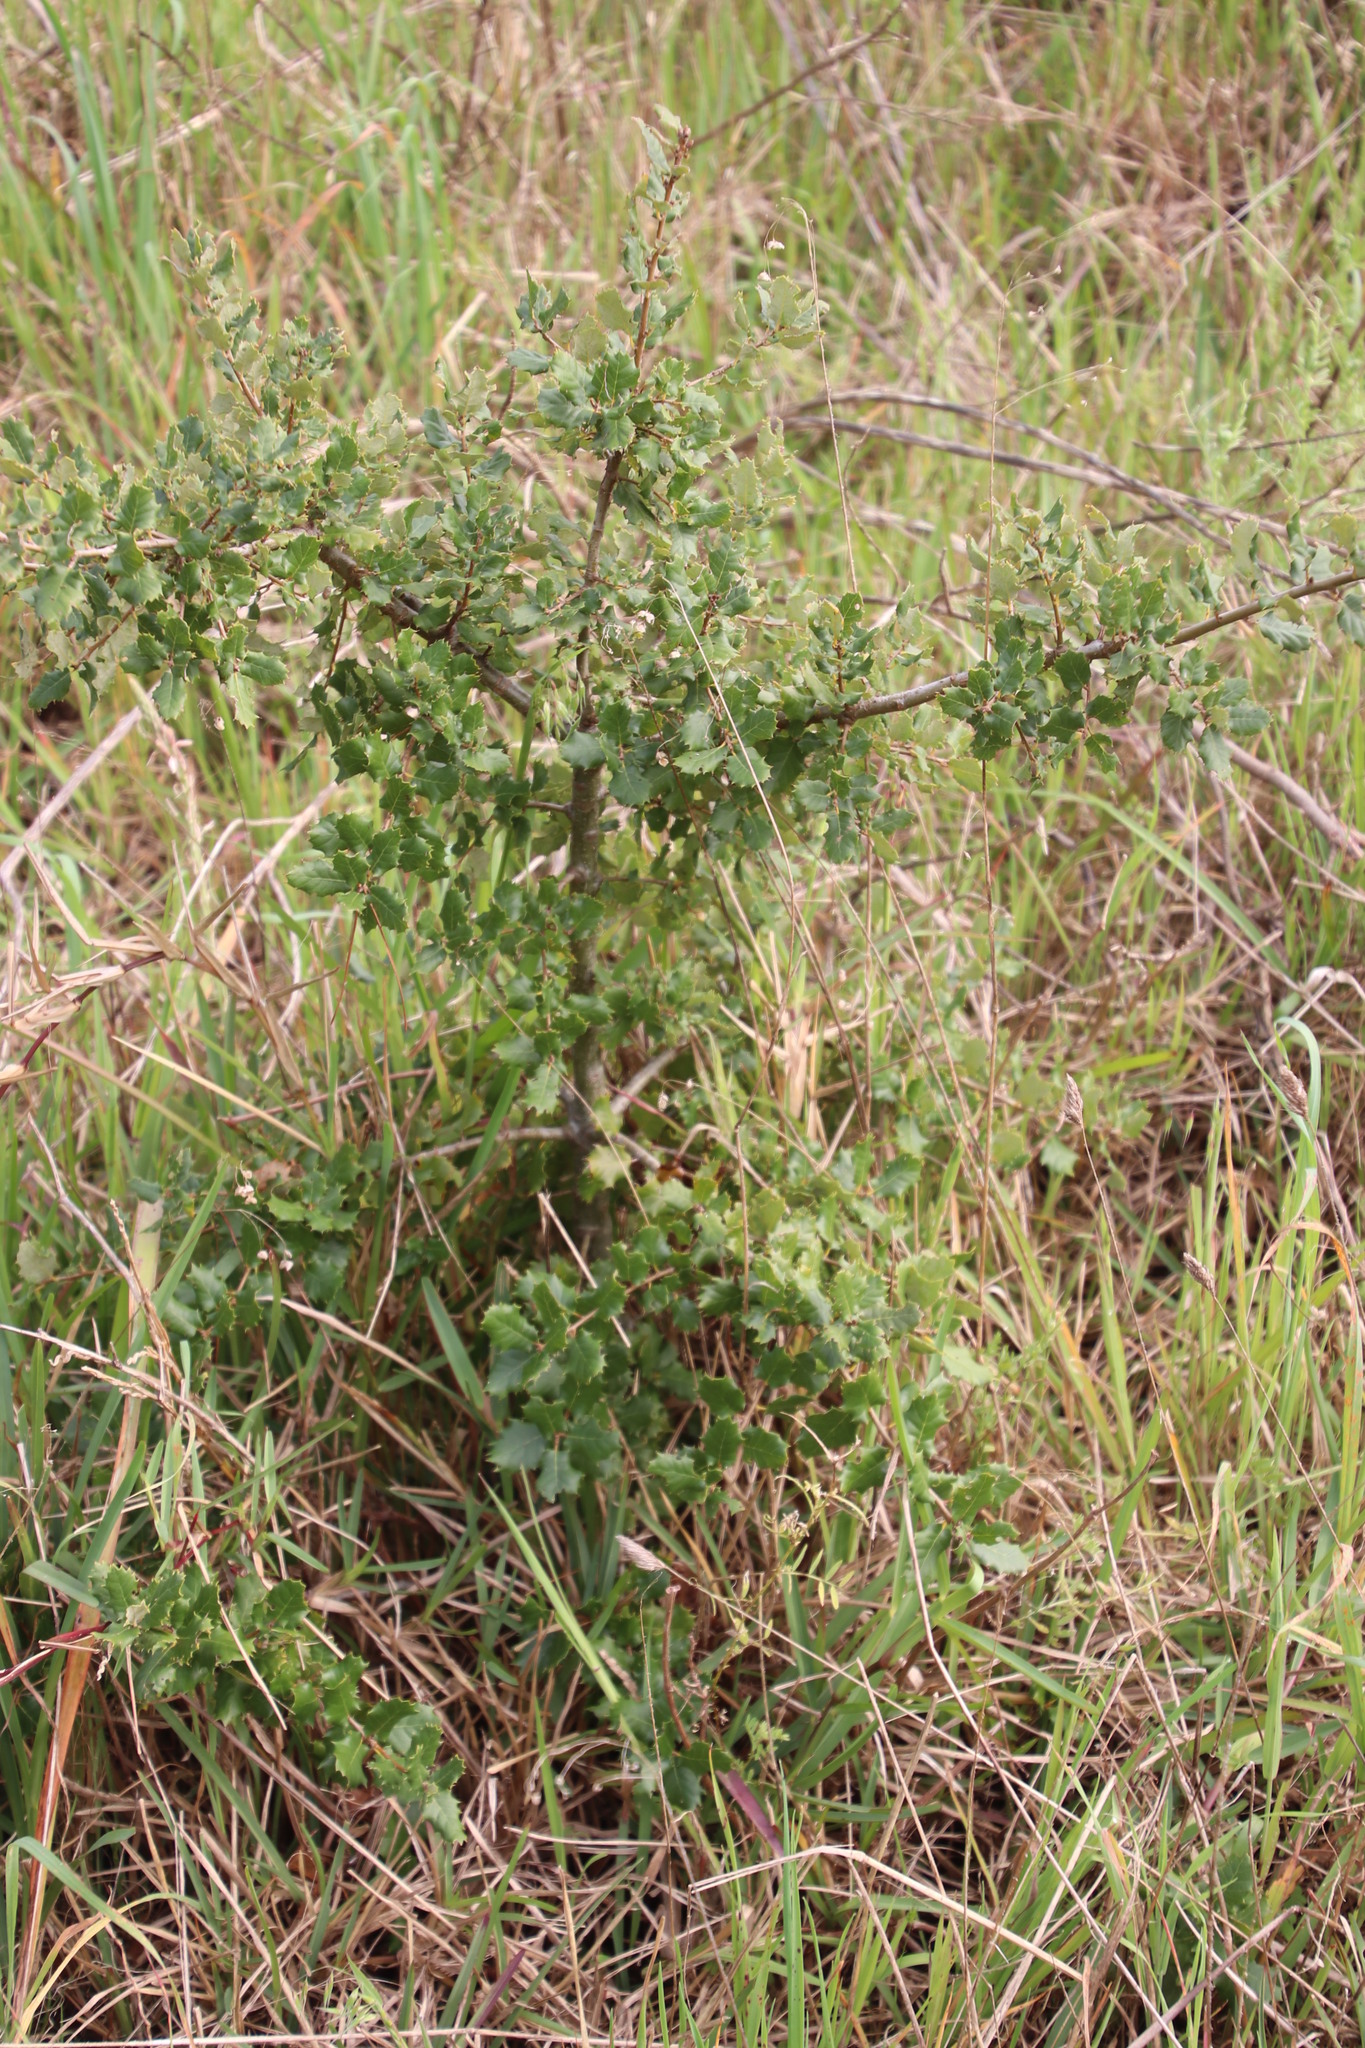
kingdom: Plantae
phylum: Tracheophyta
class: Magnoliopsida
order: Fagales
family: Fagaceae
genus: Quercus
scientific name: Quercus ilex
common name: Evergreen oak
